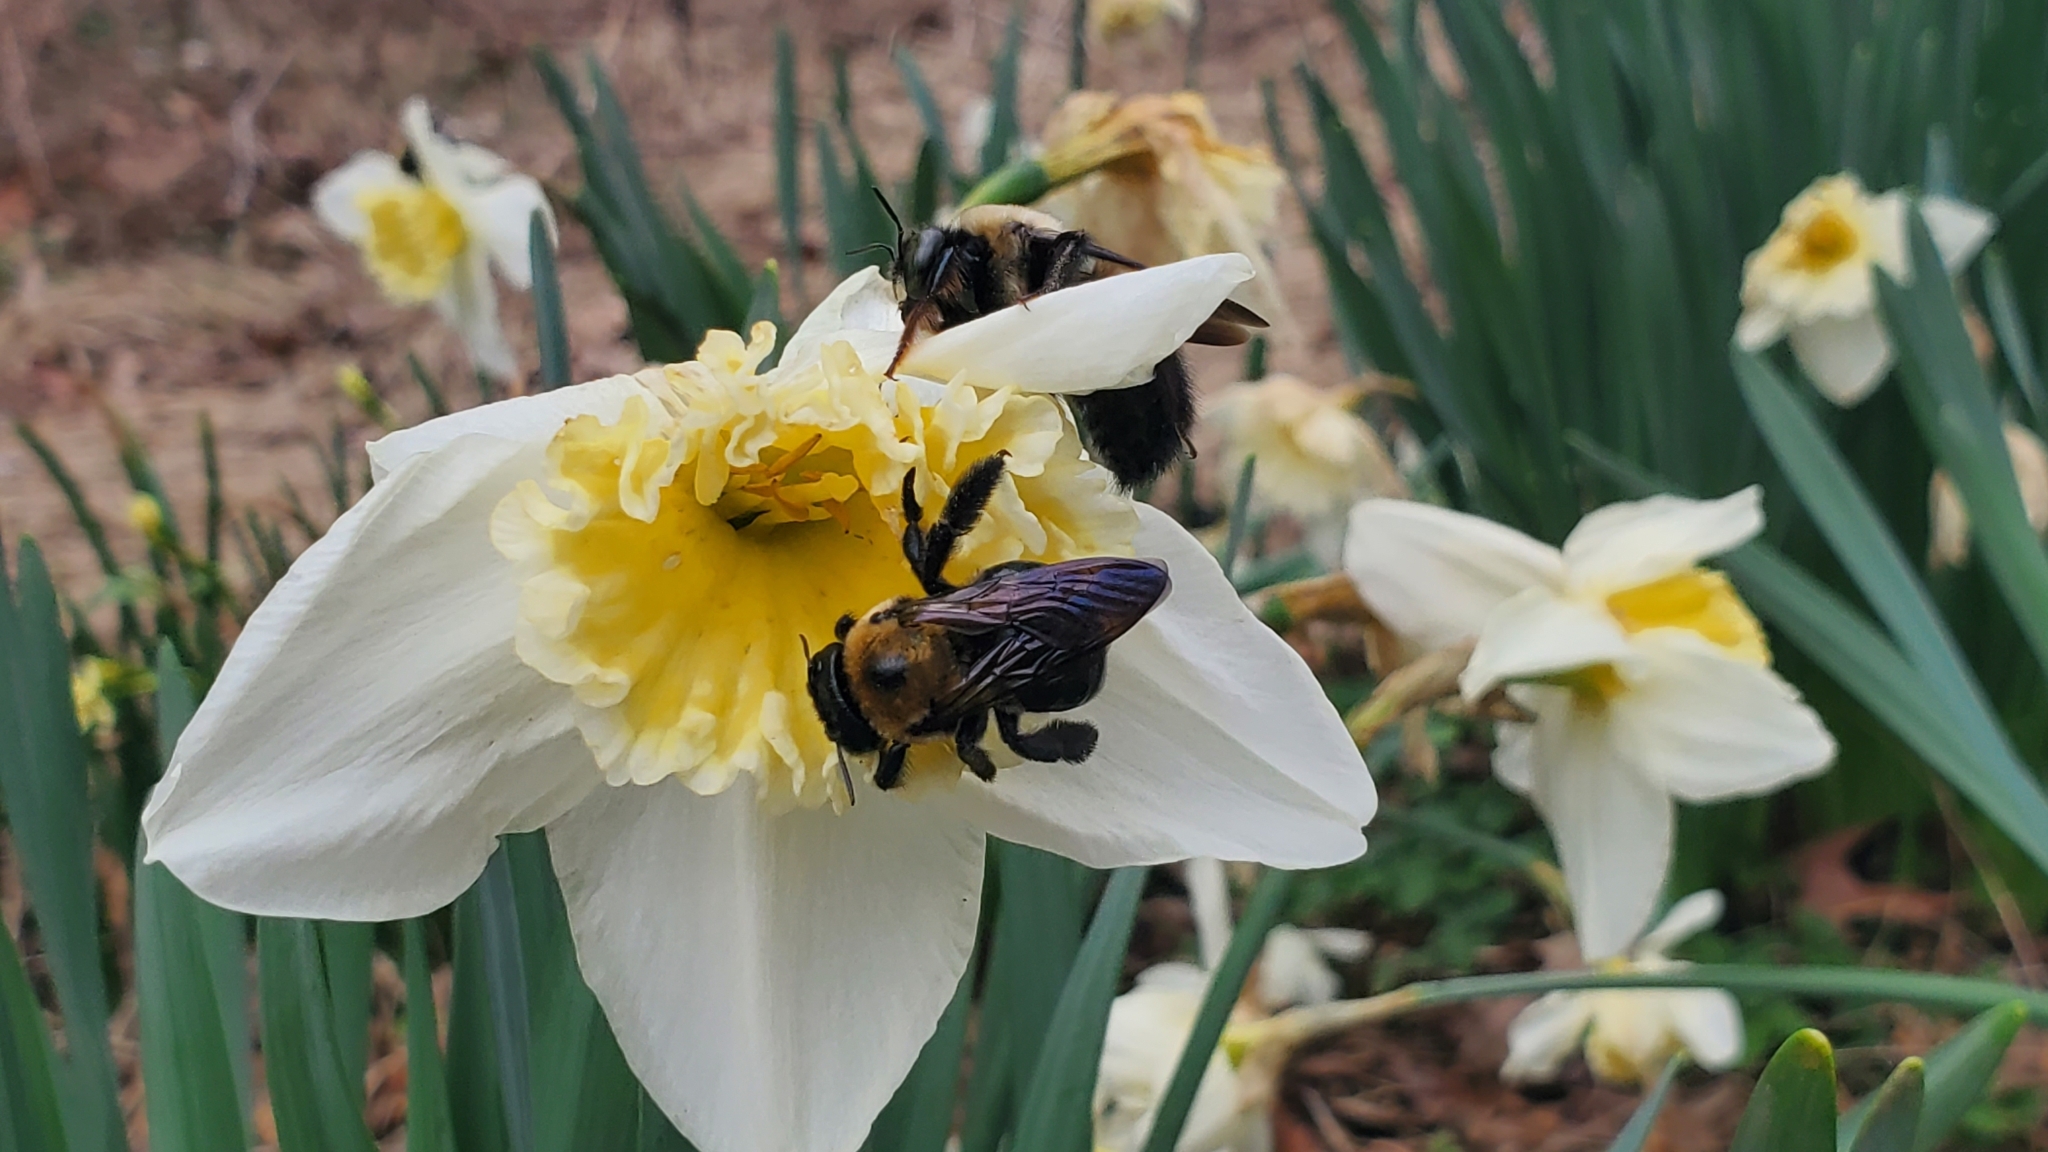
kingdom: Animalia
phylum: Arthropoda
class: Insecta
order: Hymenoptera
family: Apidae
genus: Xylocopa
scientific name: Xylocopa virginica
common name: Carpenter bee
